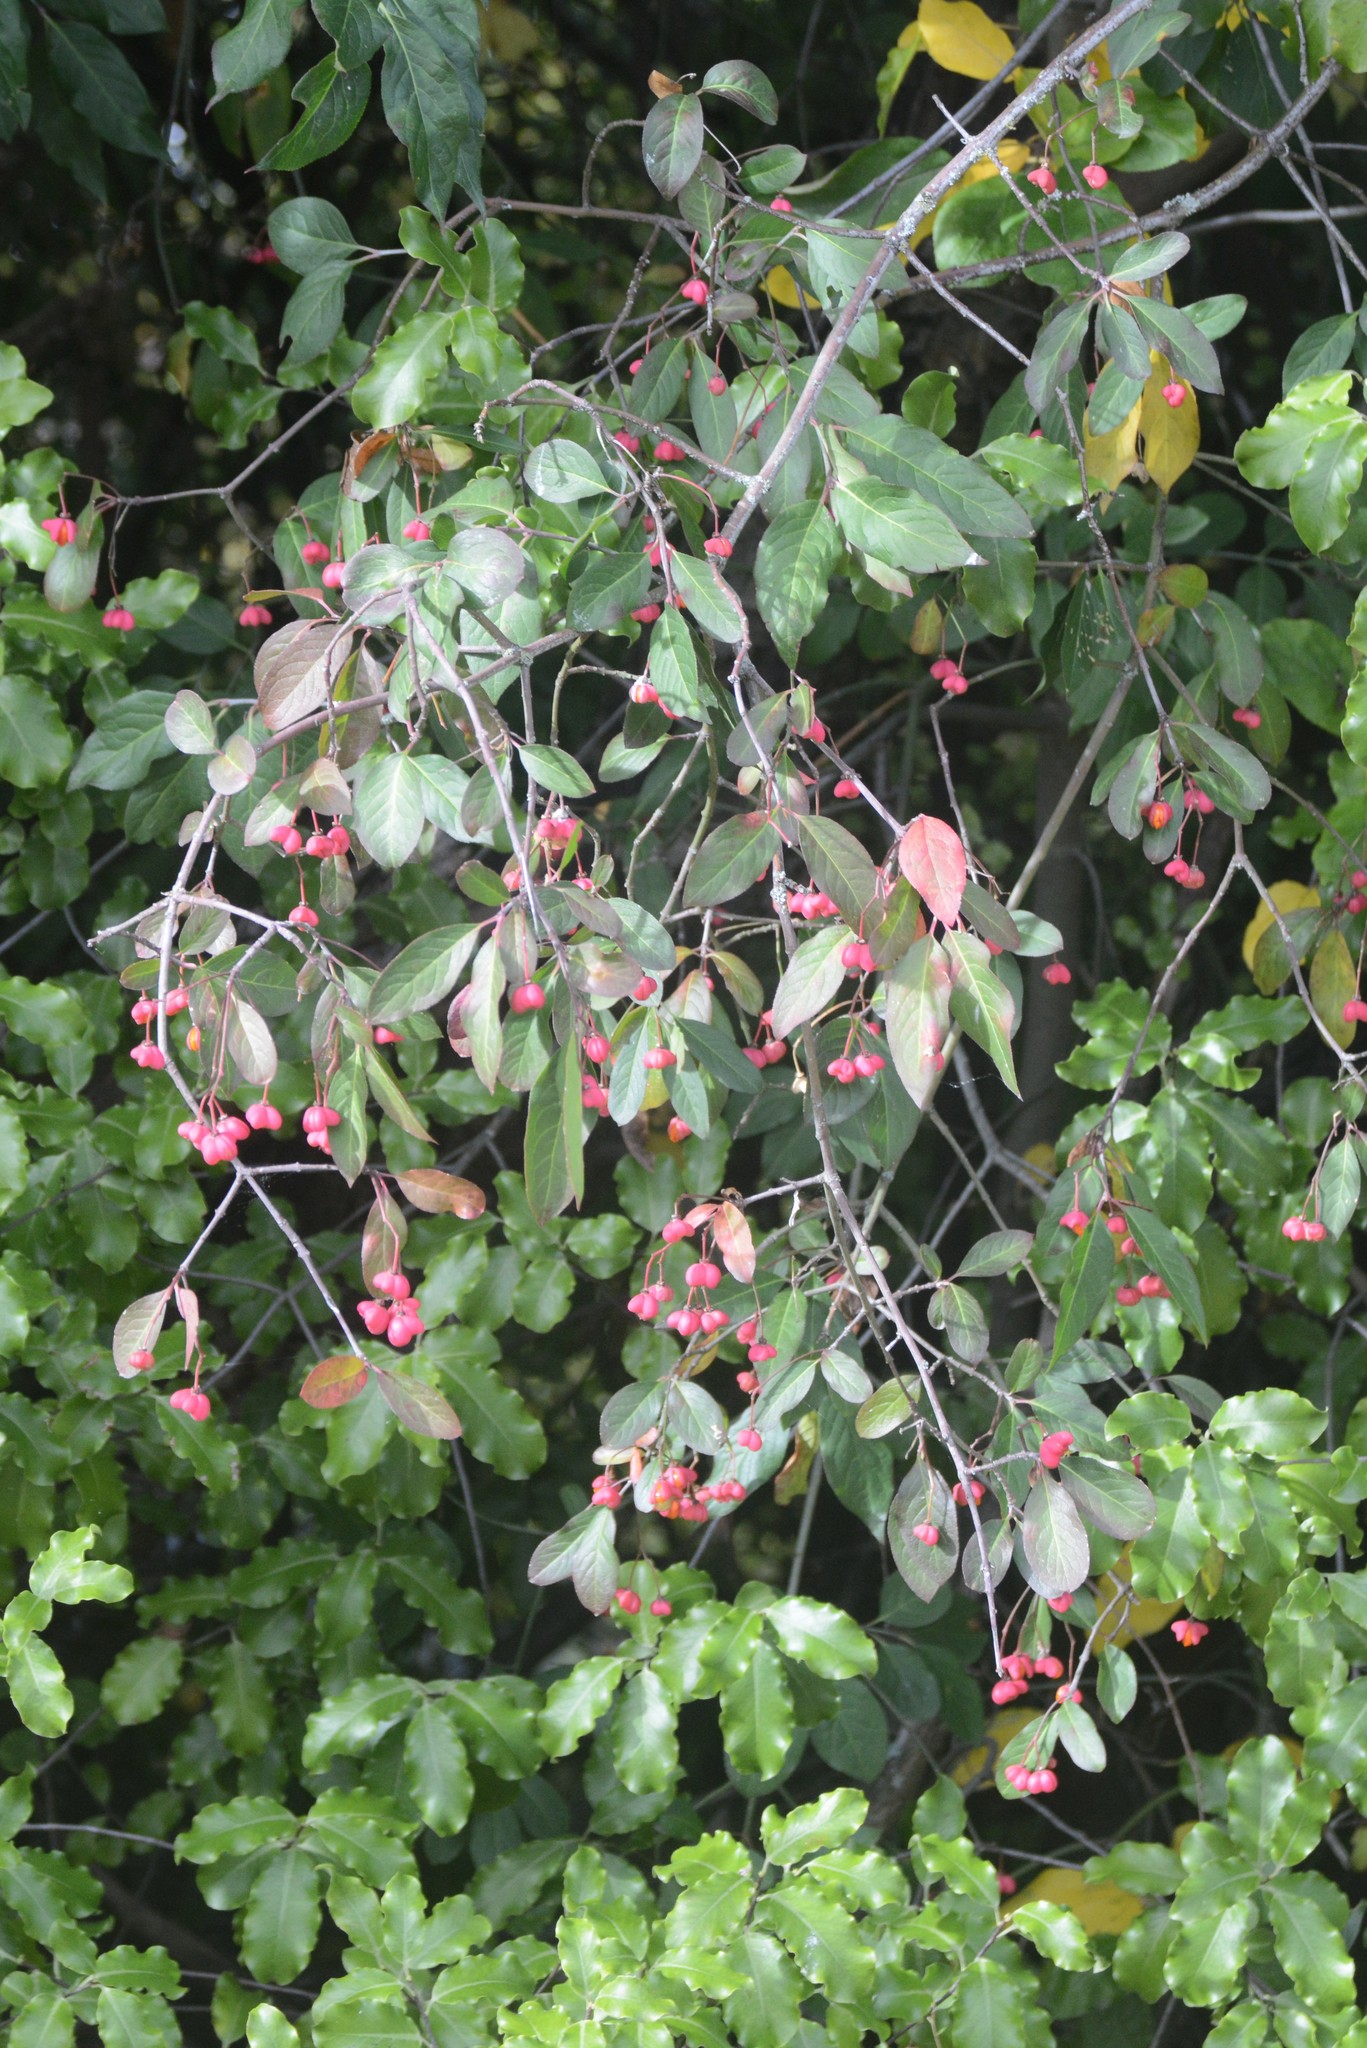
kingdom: Plantae
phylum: Tracheophyta
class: Magnoliopsida
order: Celastrales
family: Celastraceae
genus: Euonymus
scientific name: Euonymus europaeus
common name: Spindle
